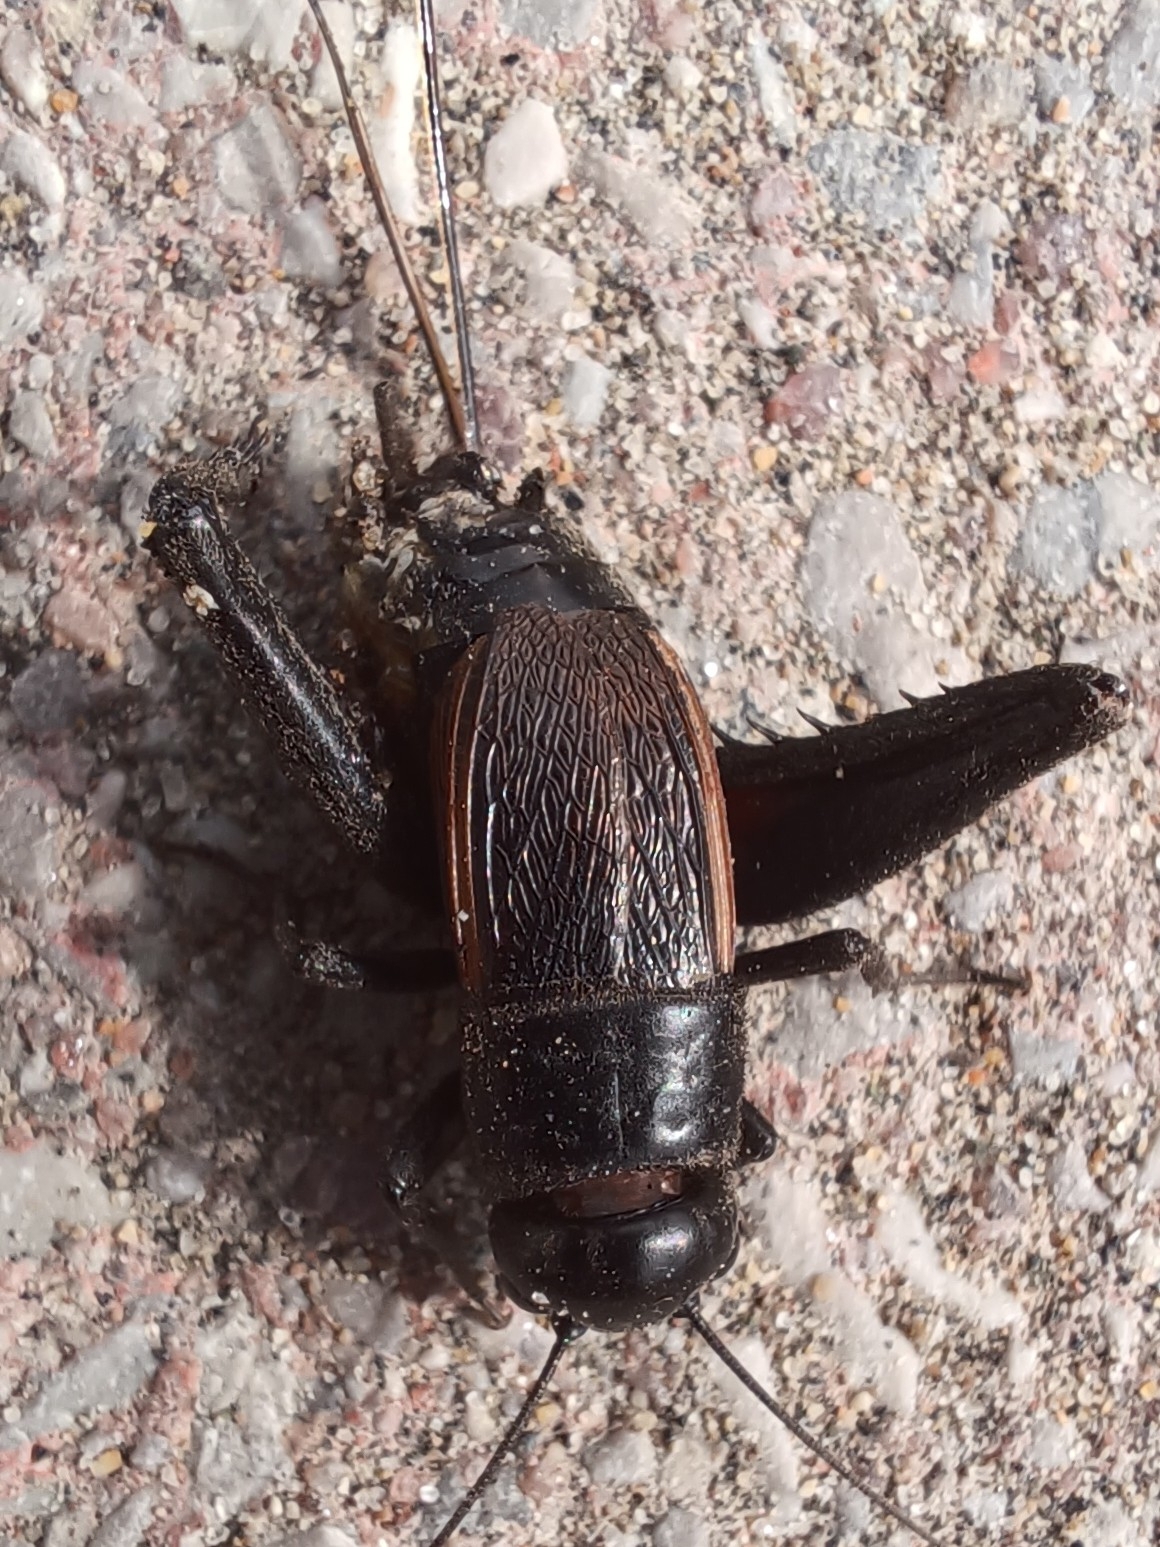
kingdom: Animalia
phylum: Arthropoda
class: Insecta
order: Orthoptera
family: Gryllidae
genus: Gryllus
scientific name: Gryllus pennsylvanicus
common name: Fall field cricket
